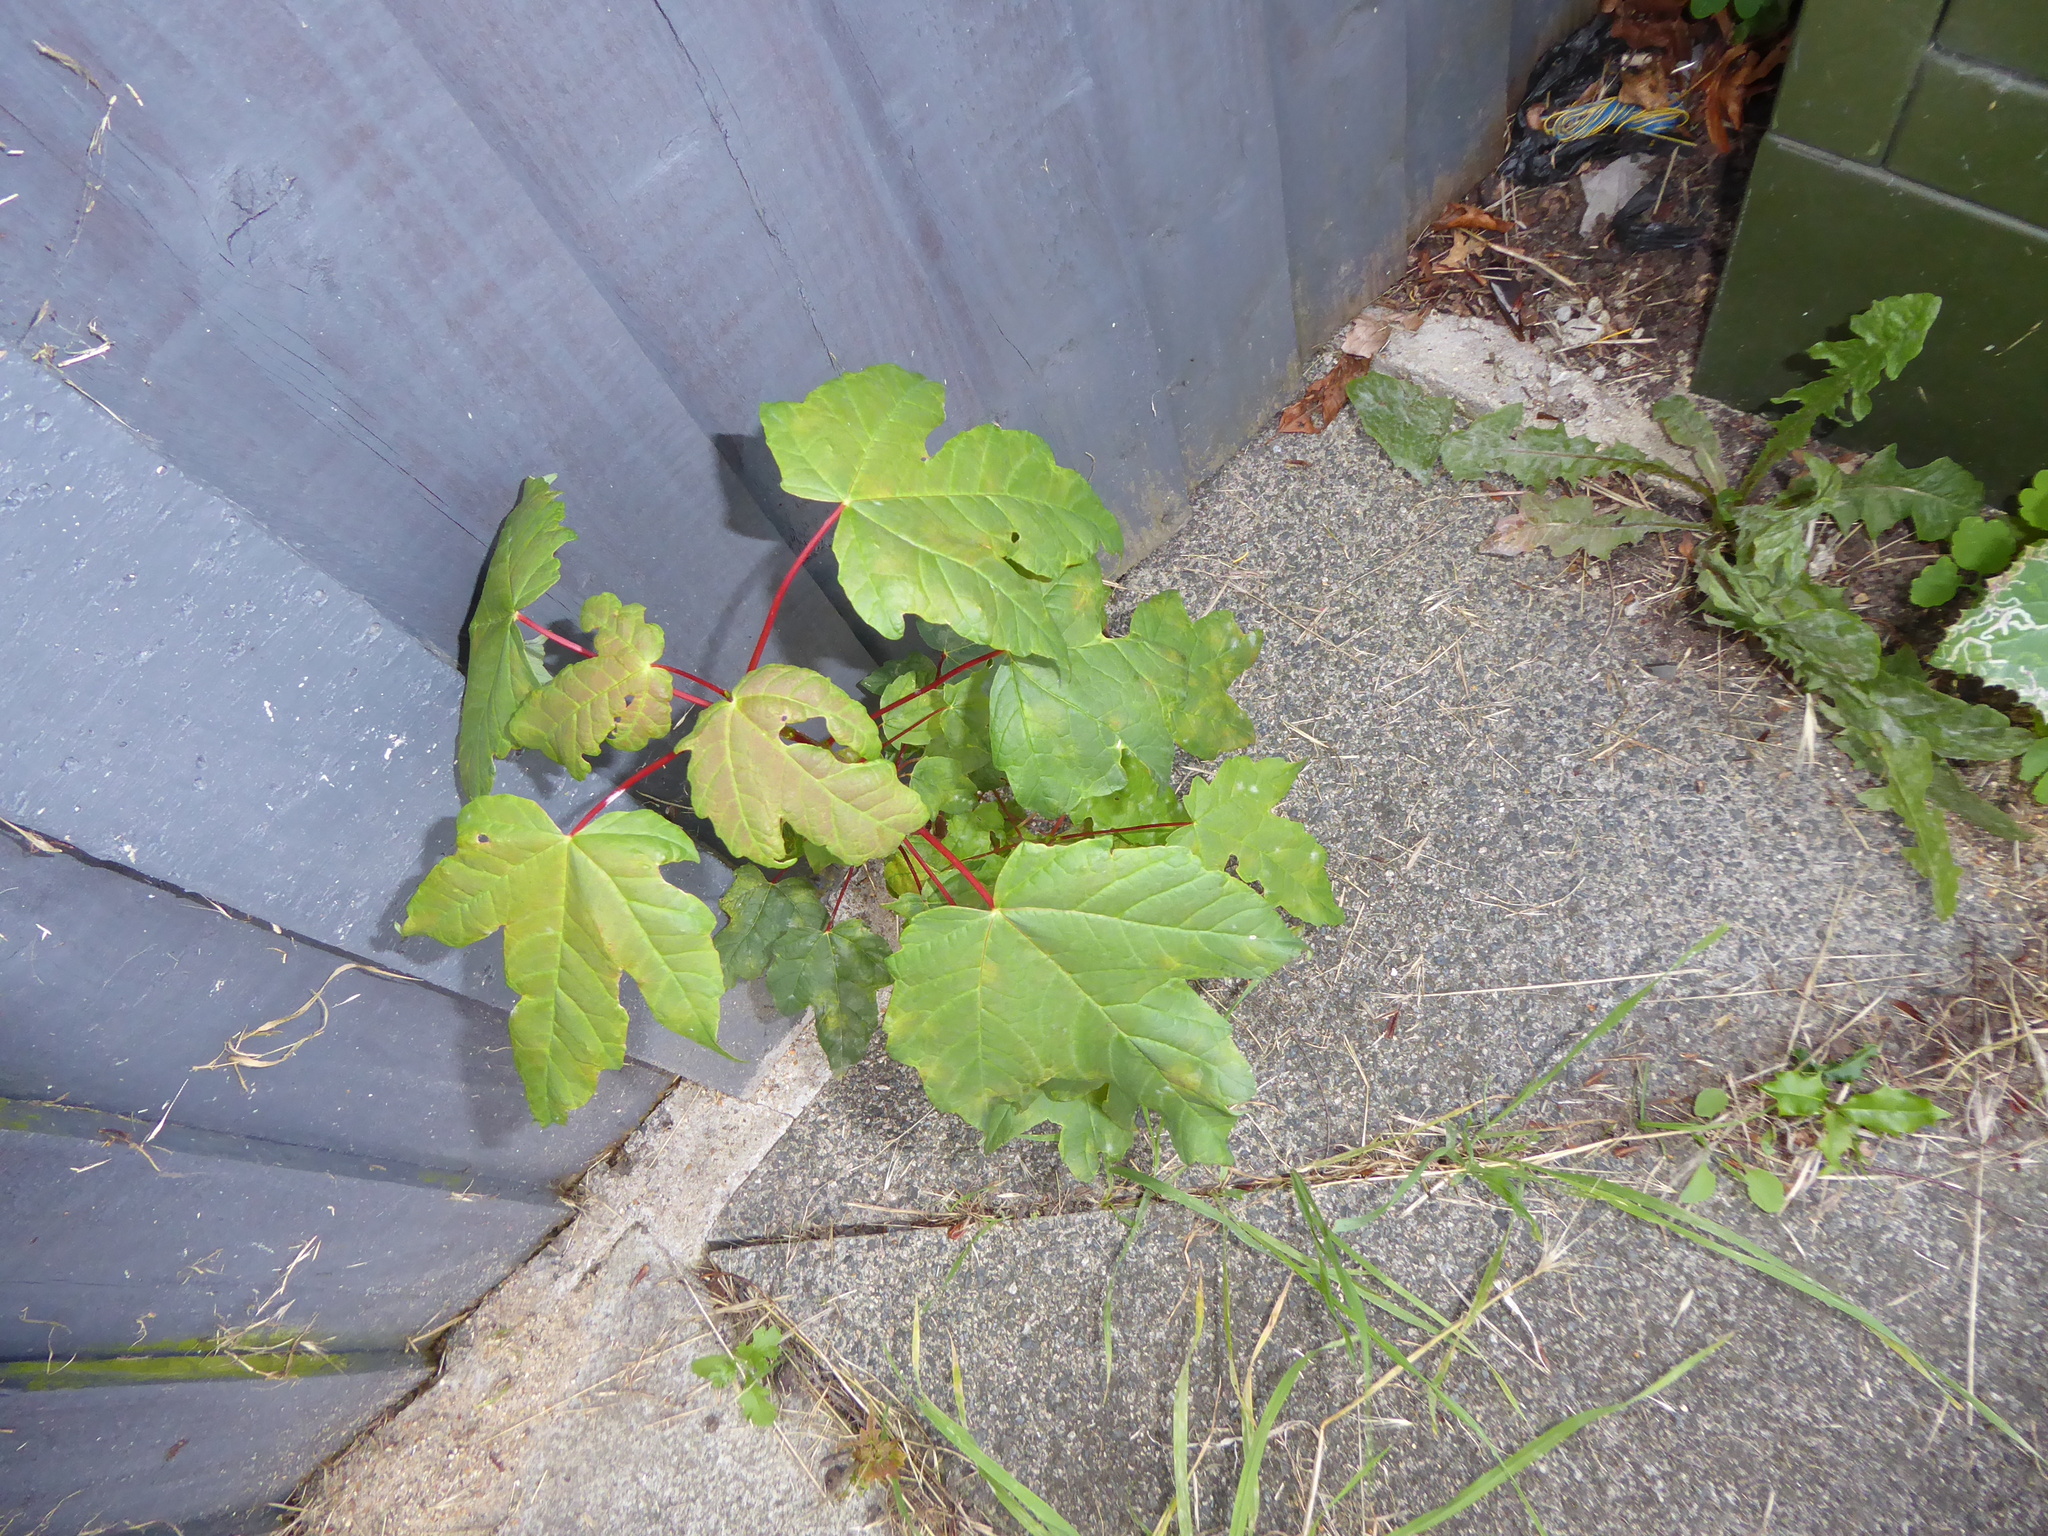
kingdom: Plantae
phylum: Tracheophyta
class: Magnoliopsida
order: Sapindales
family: Sapindaceae
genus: Acer
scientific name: Acer pseudoplatanus
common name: Sycamore
